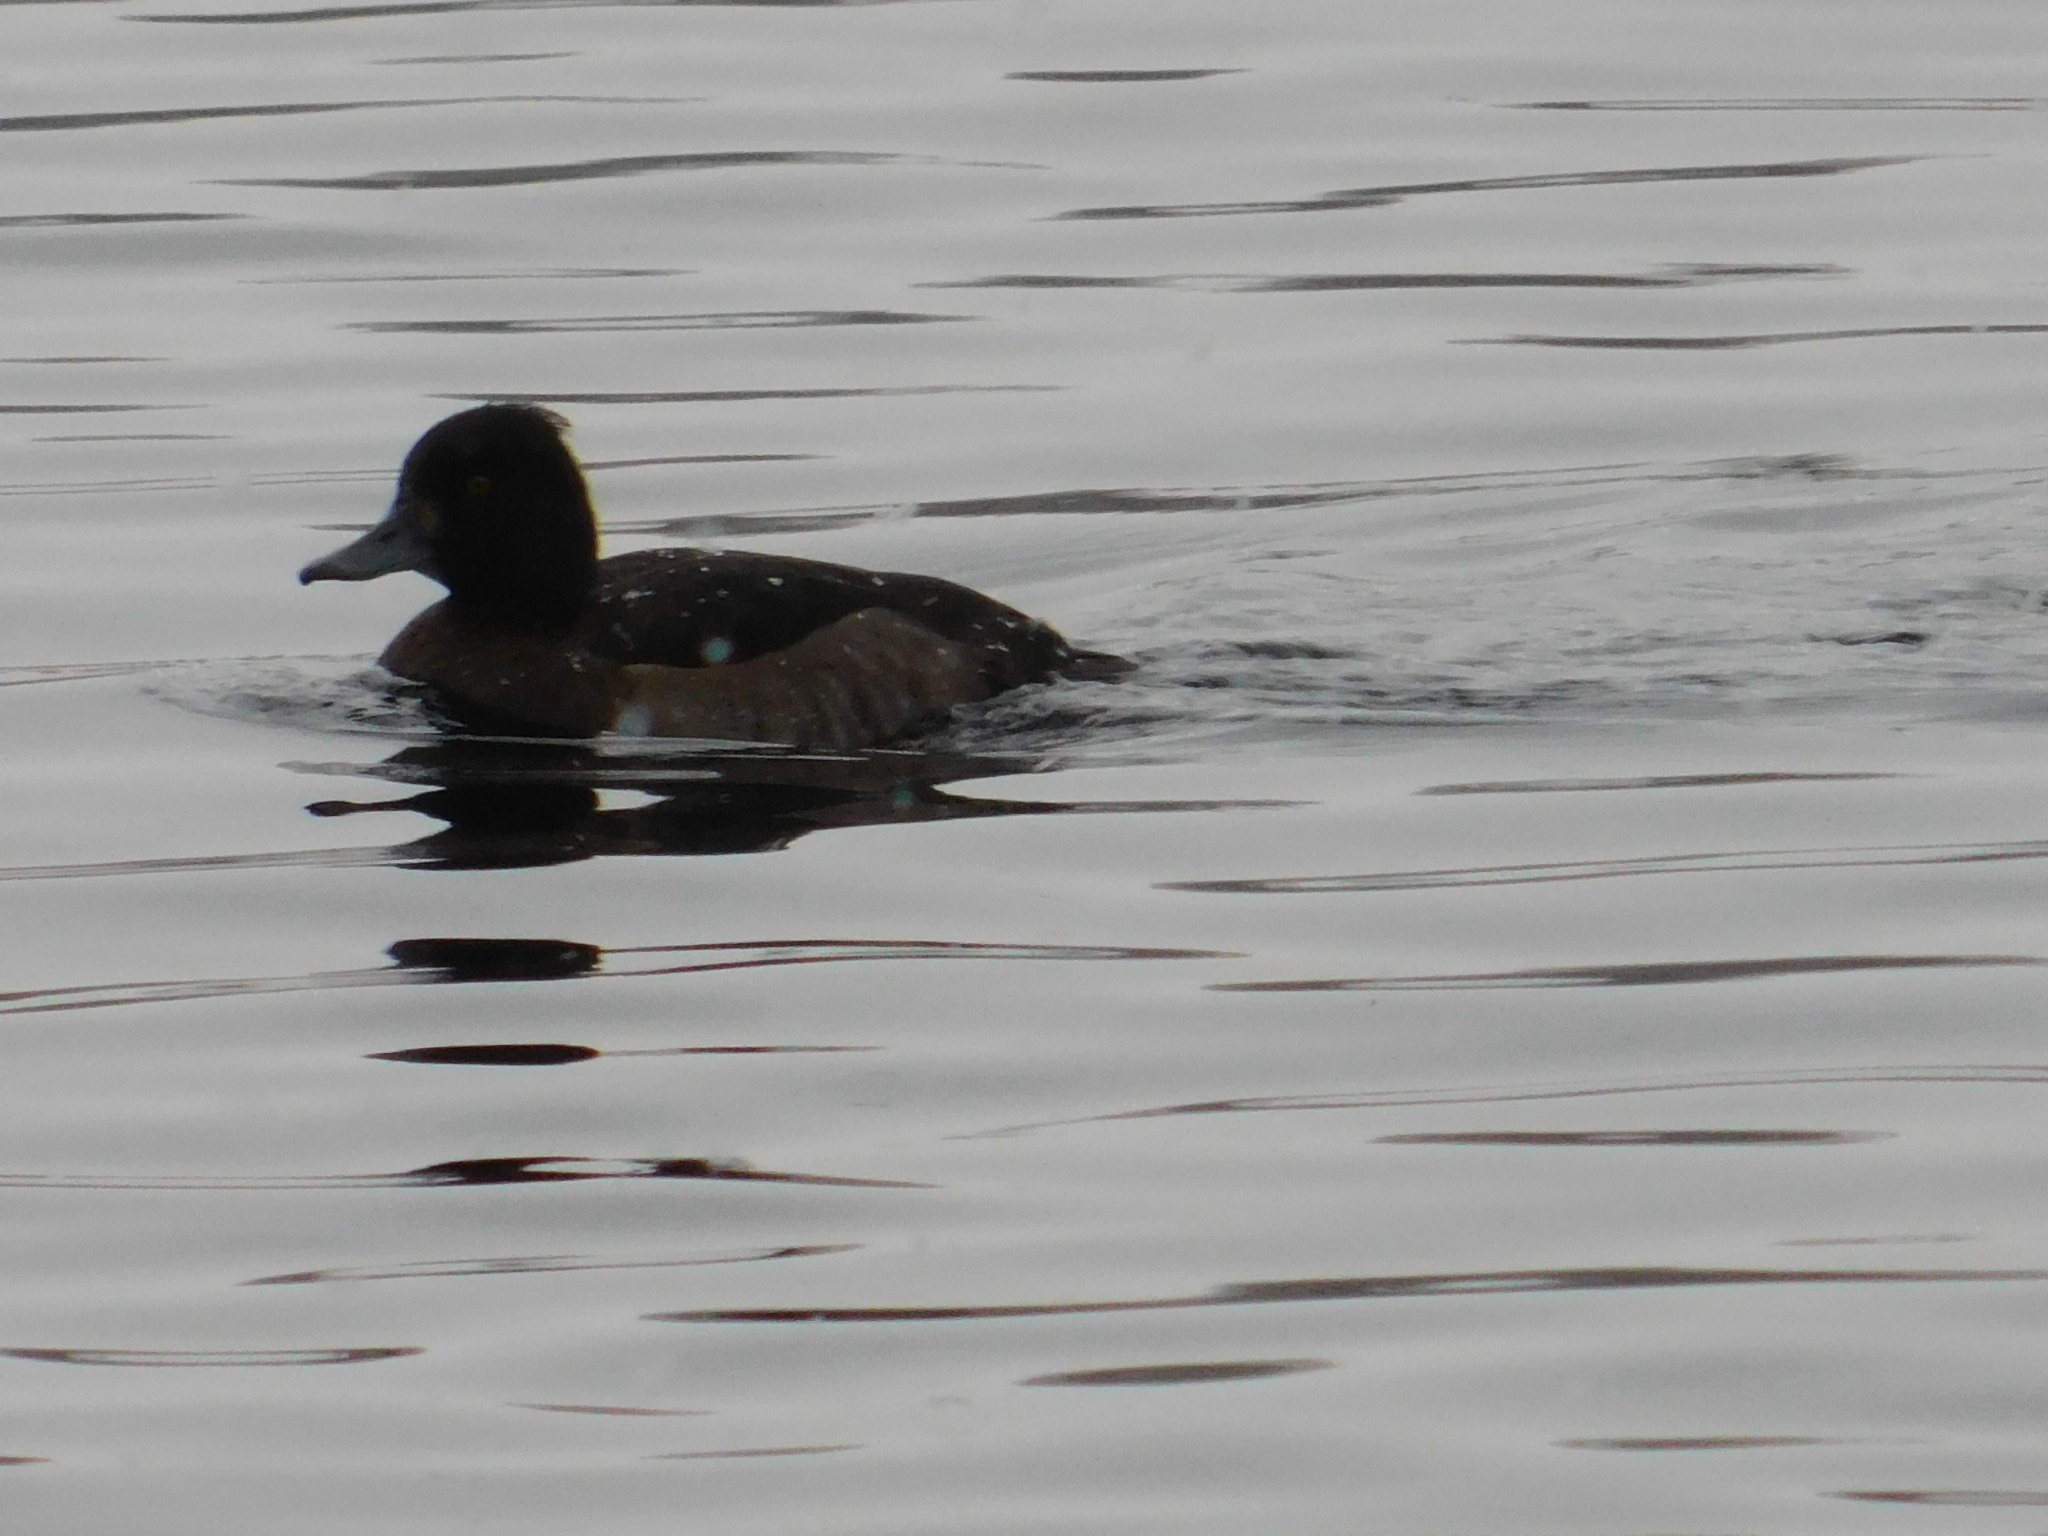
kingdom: Animalia
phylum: Chordata
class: Aves
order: Anseriformes
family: Anatidae
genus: Aythya
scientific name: Aythya fuligula
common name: Tufted duck
